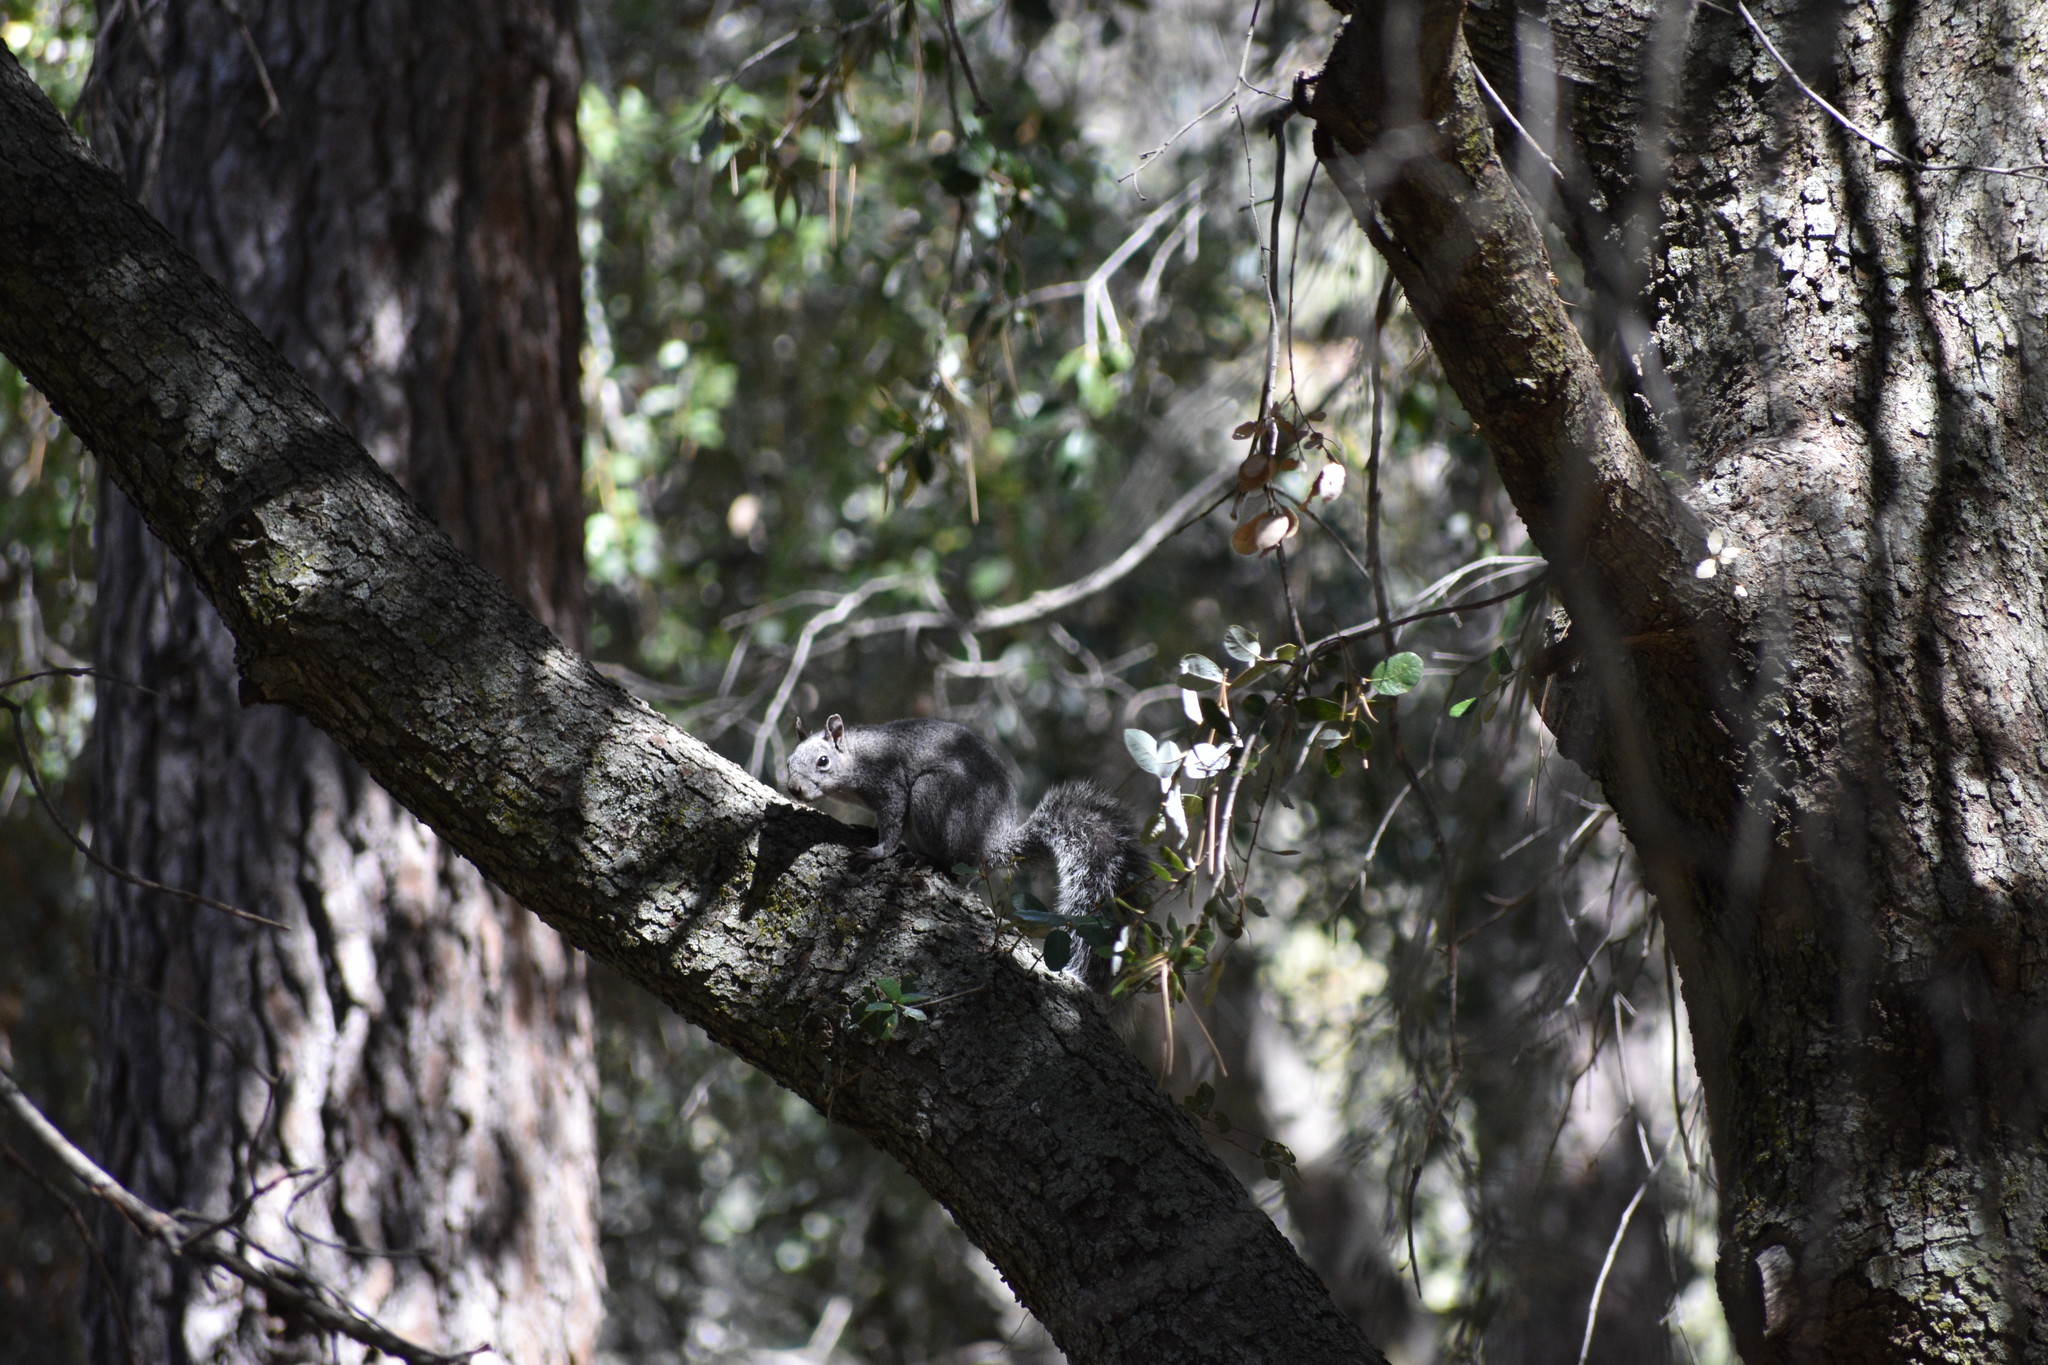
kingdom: Animalia
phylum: Chordata
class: Mammalia
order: Rodentia
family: Sciuridae
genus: Sciurus
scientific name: Sciurus griseus
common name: Western gray squirrel
